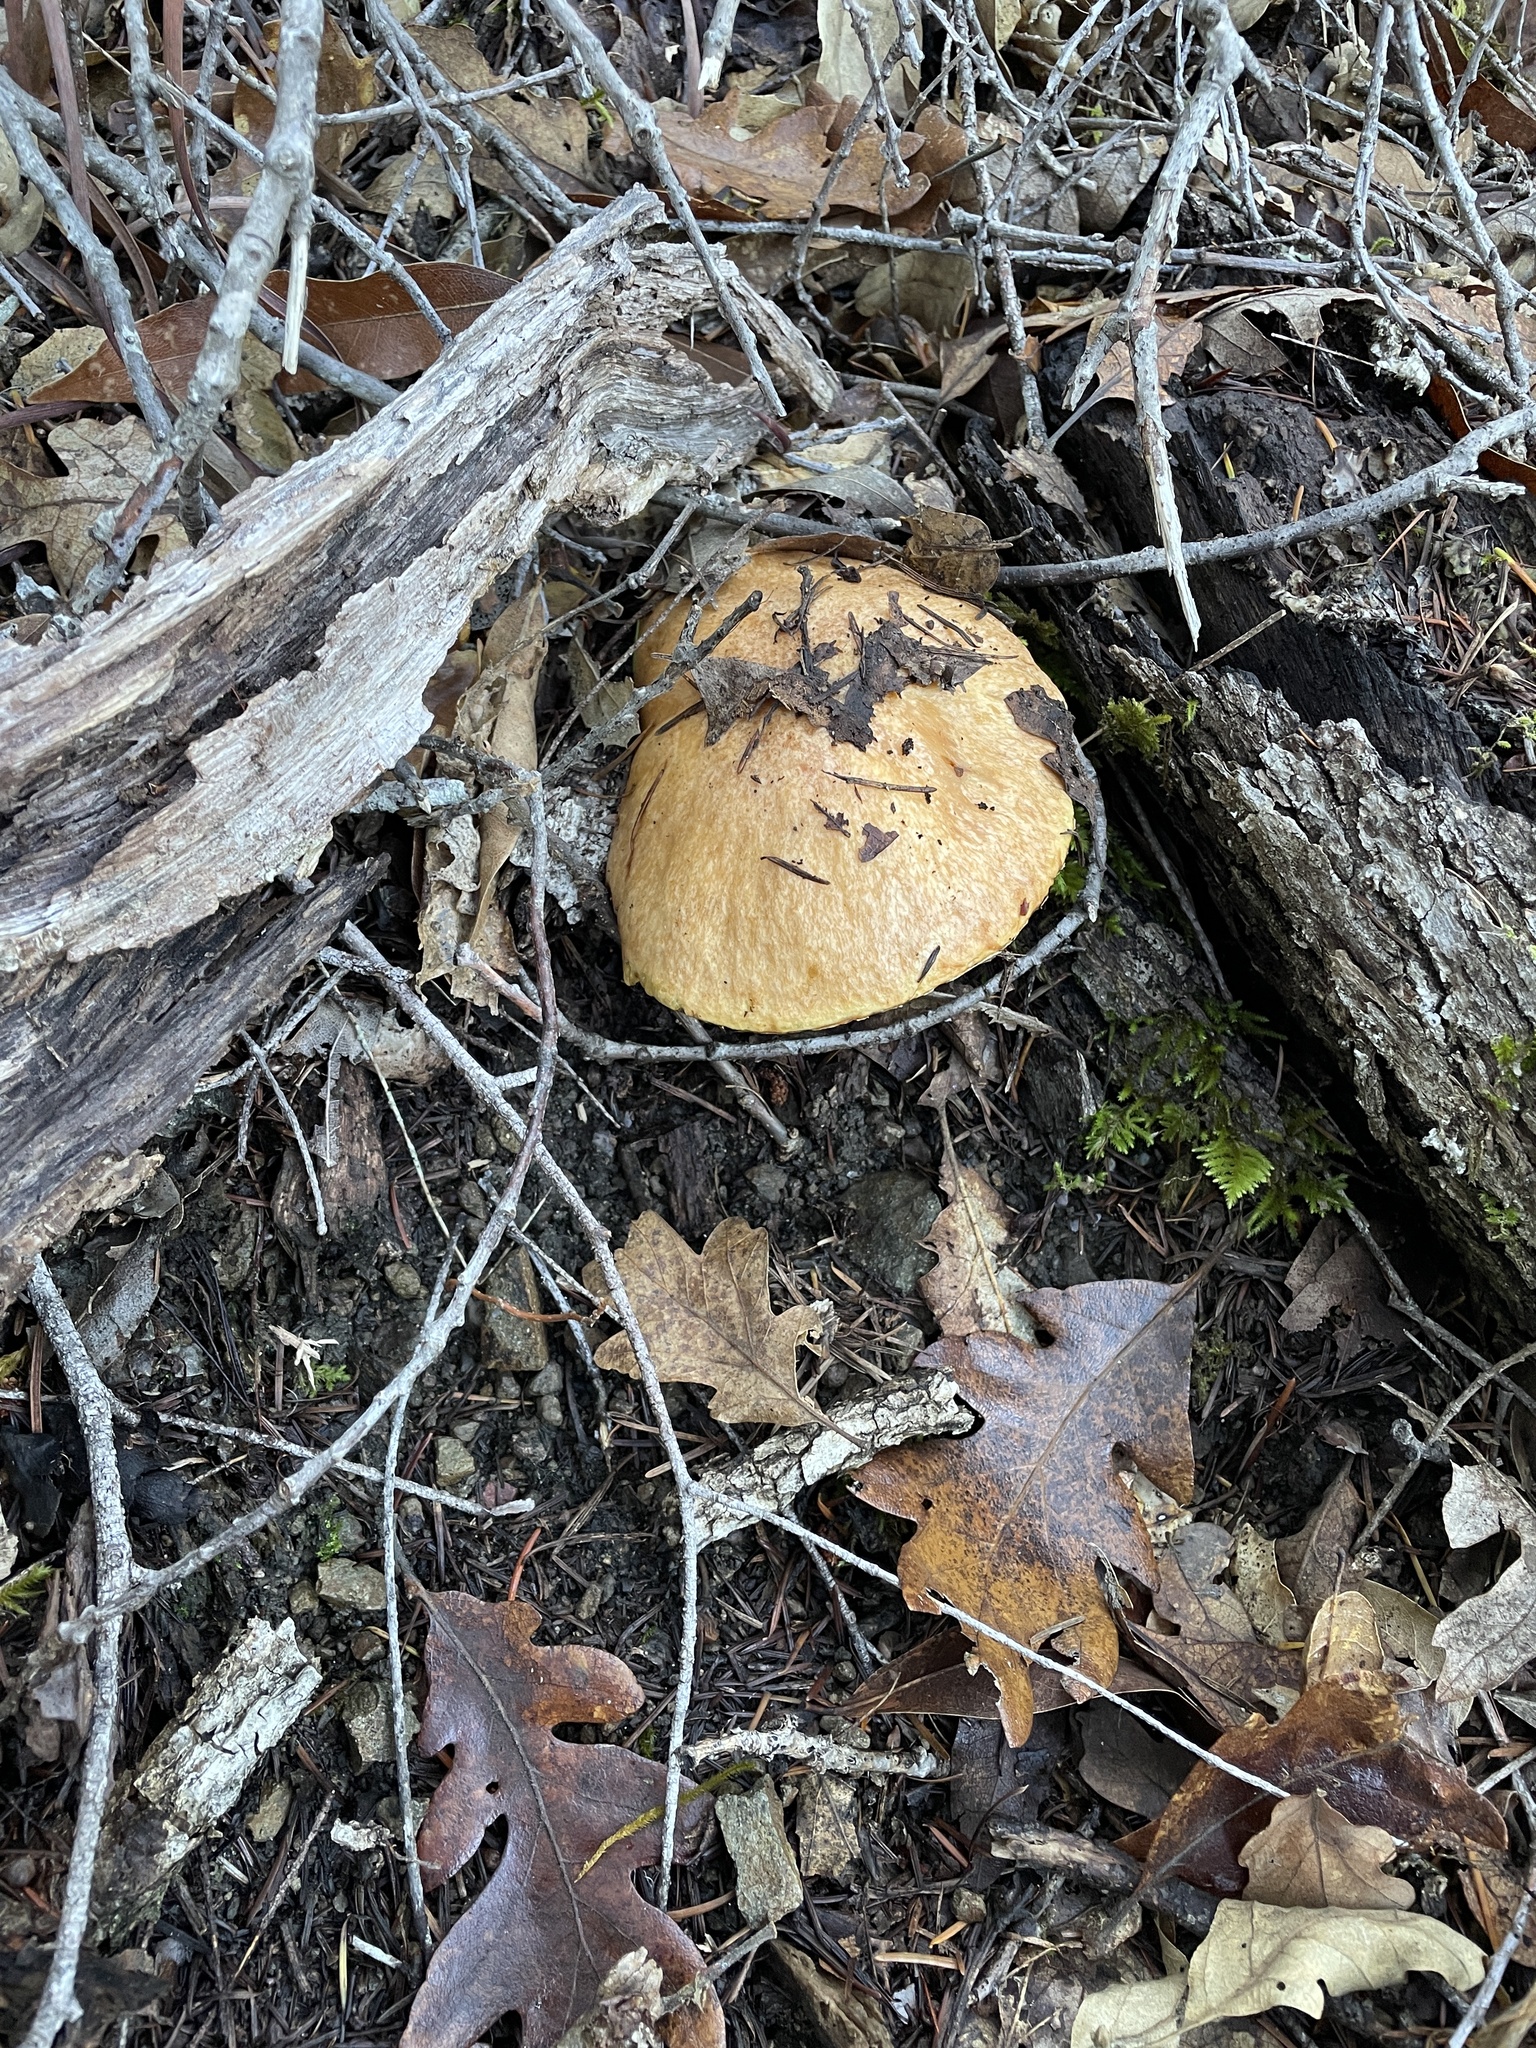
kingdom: Fungi
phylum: Basidiomycota
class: Agaricomycetes
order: Boletales
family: Suillaceae
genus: Suillus
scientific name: Suillus caerulescens
